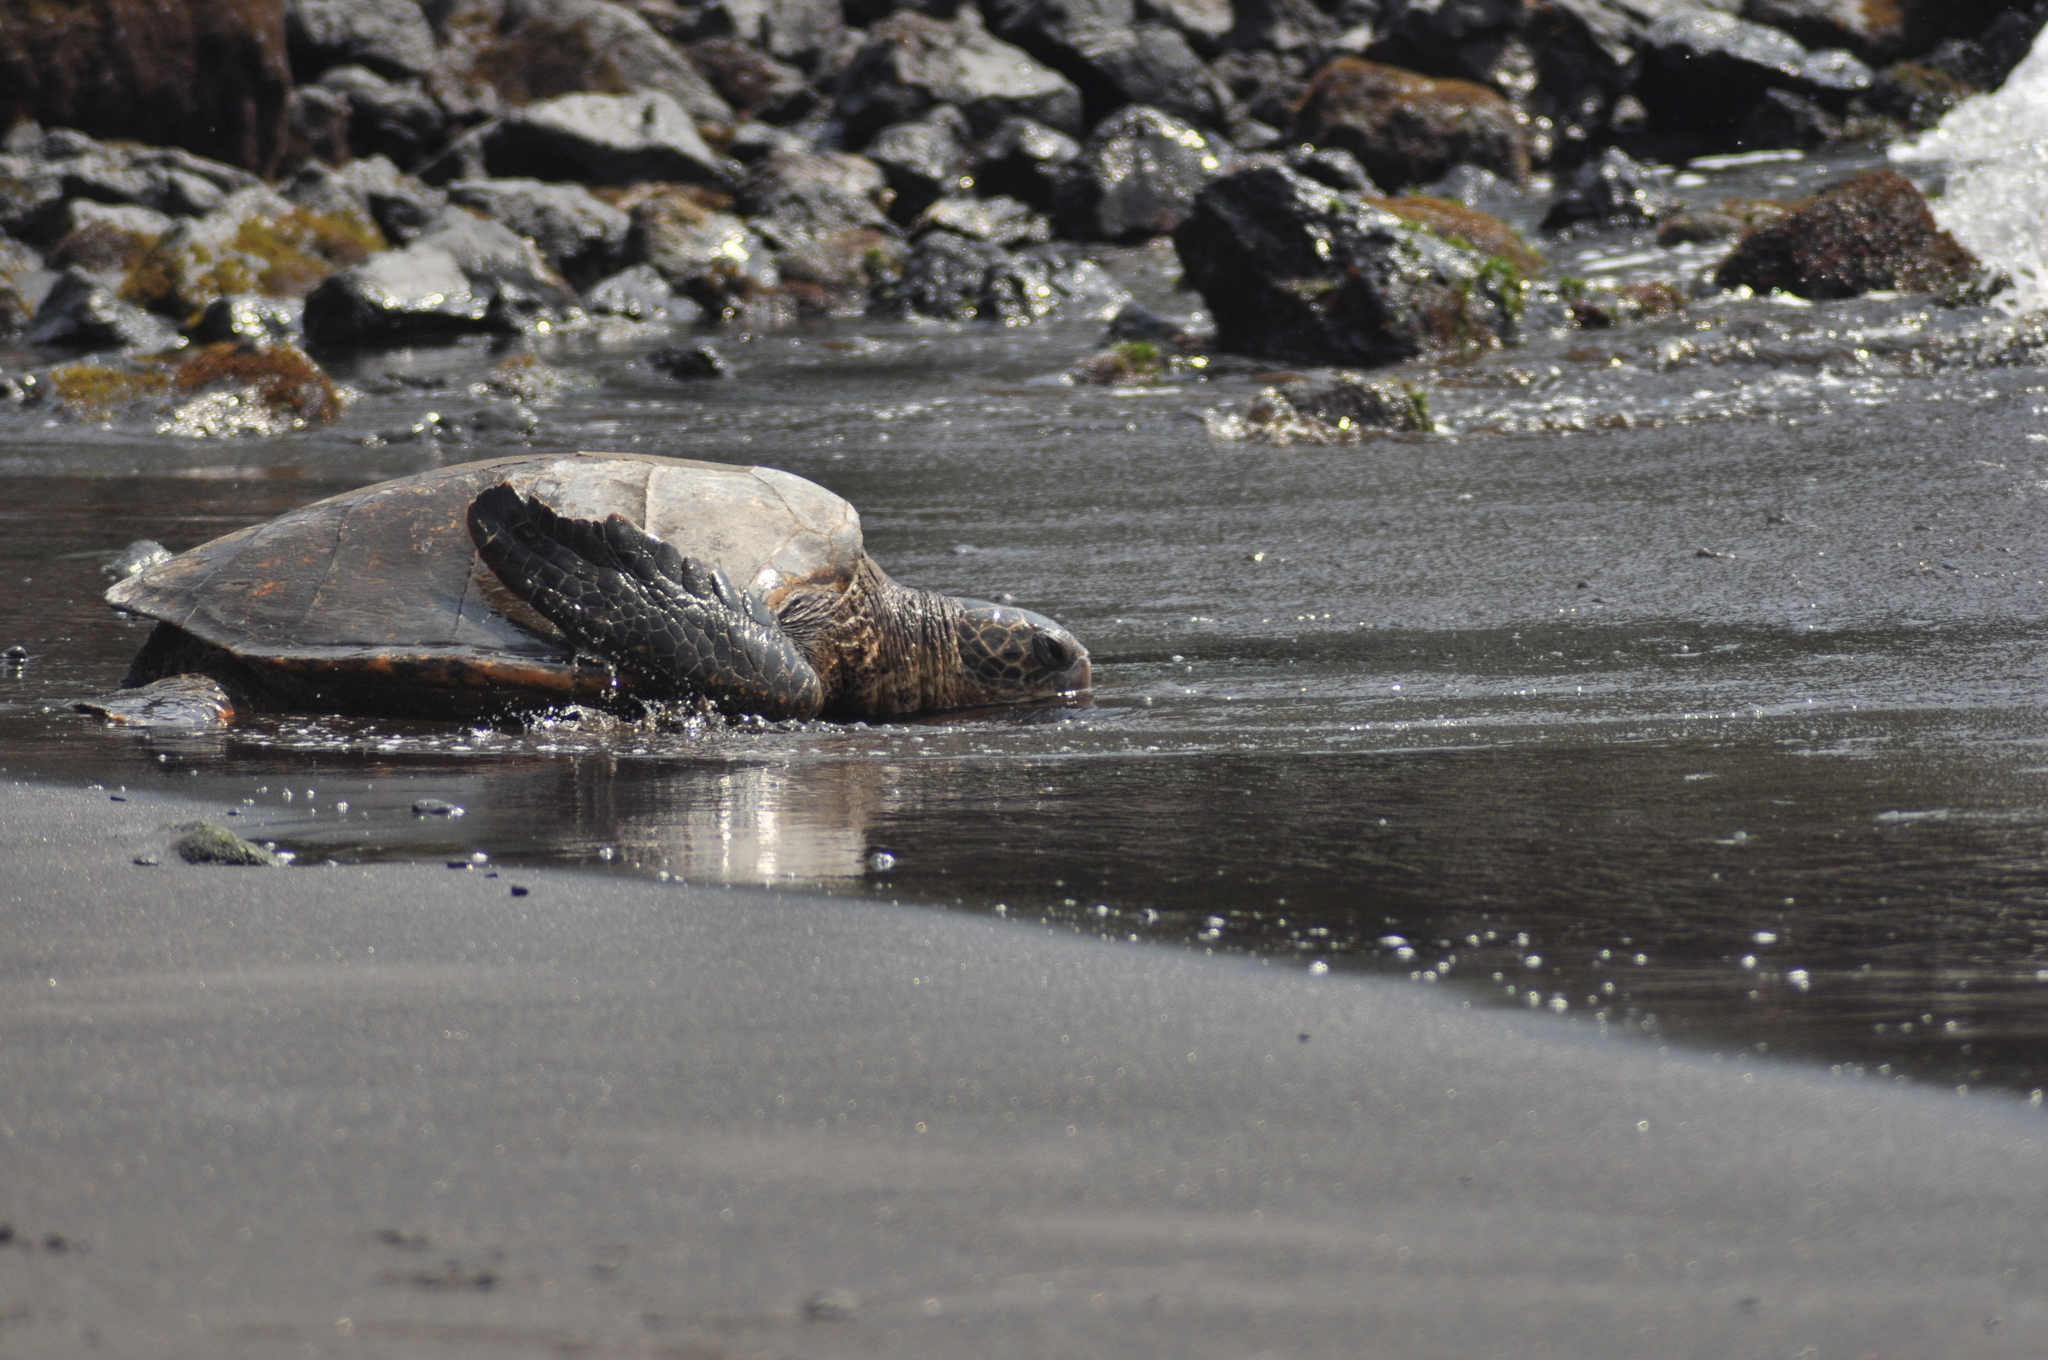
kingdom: Animalia
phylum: Chordata
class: Testudines
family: Cheloniidae
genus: Chelonia
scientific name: Chelonia mydas
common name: Green turtle
